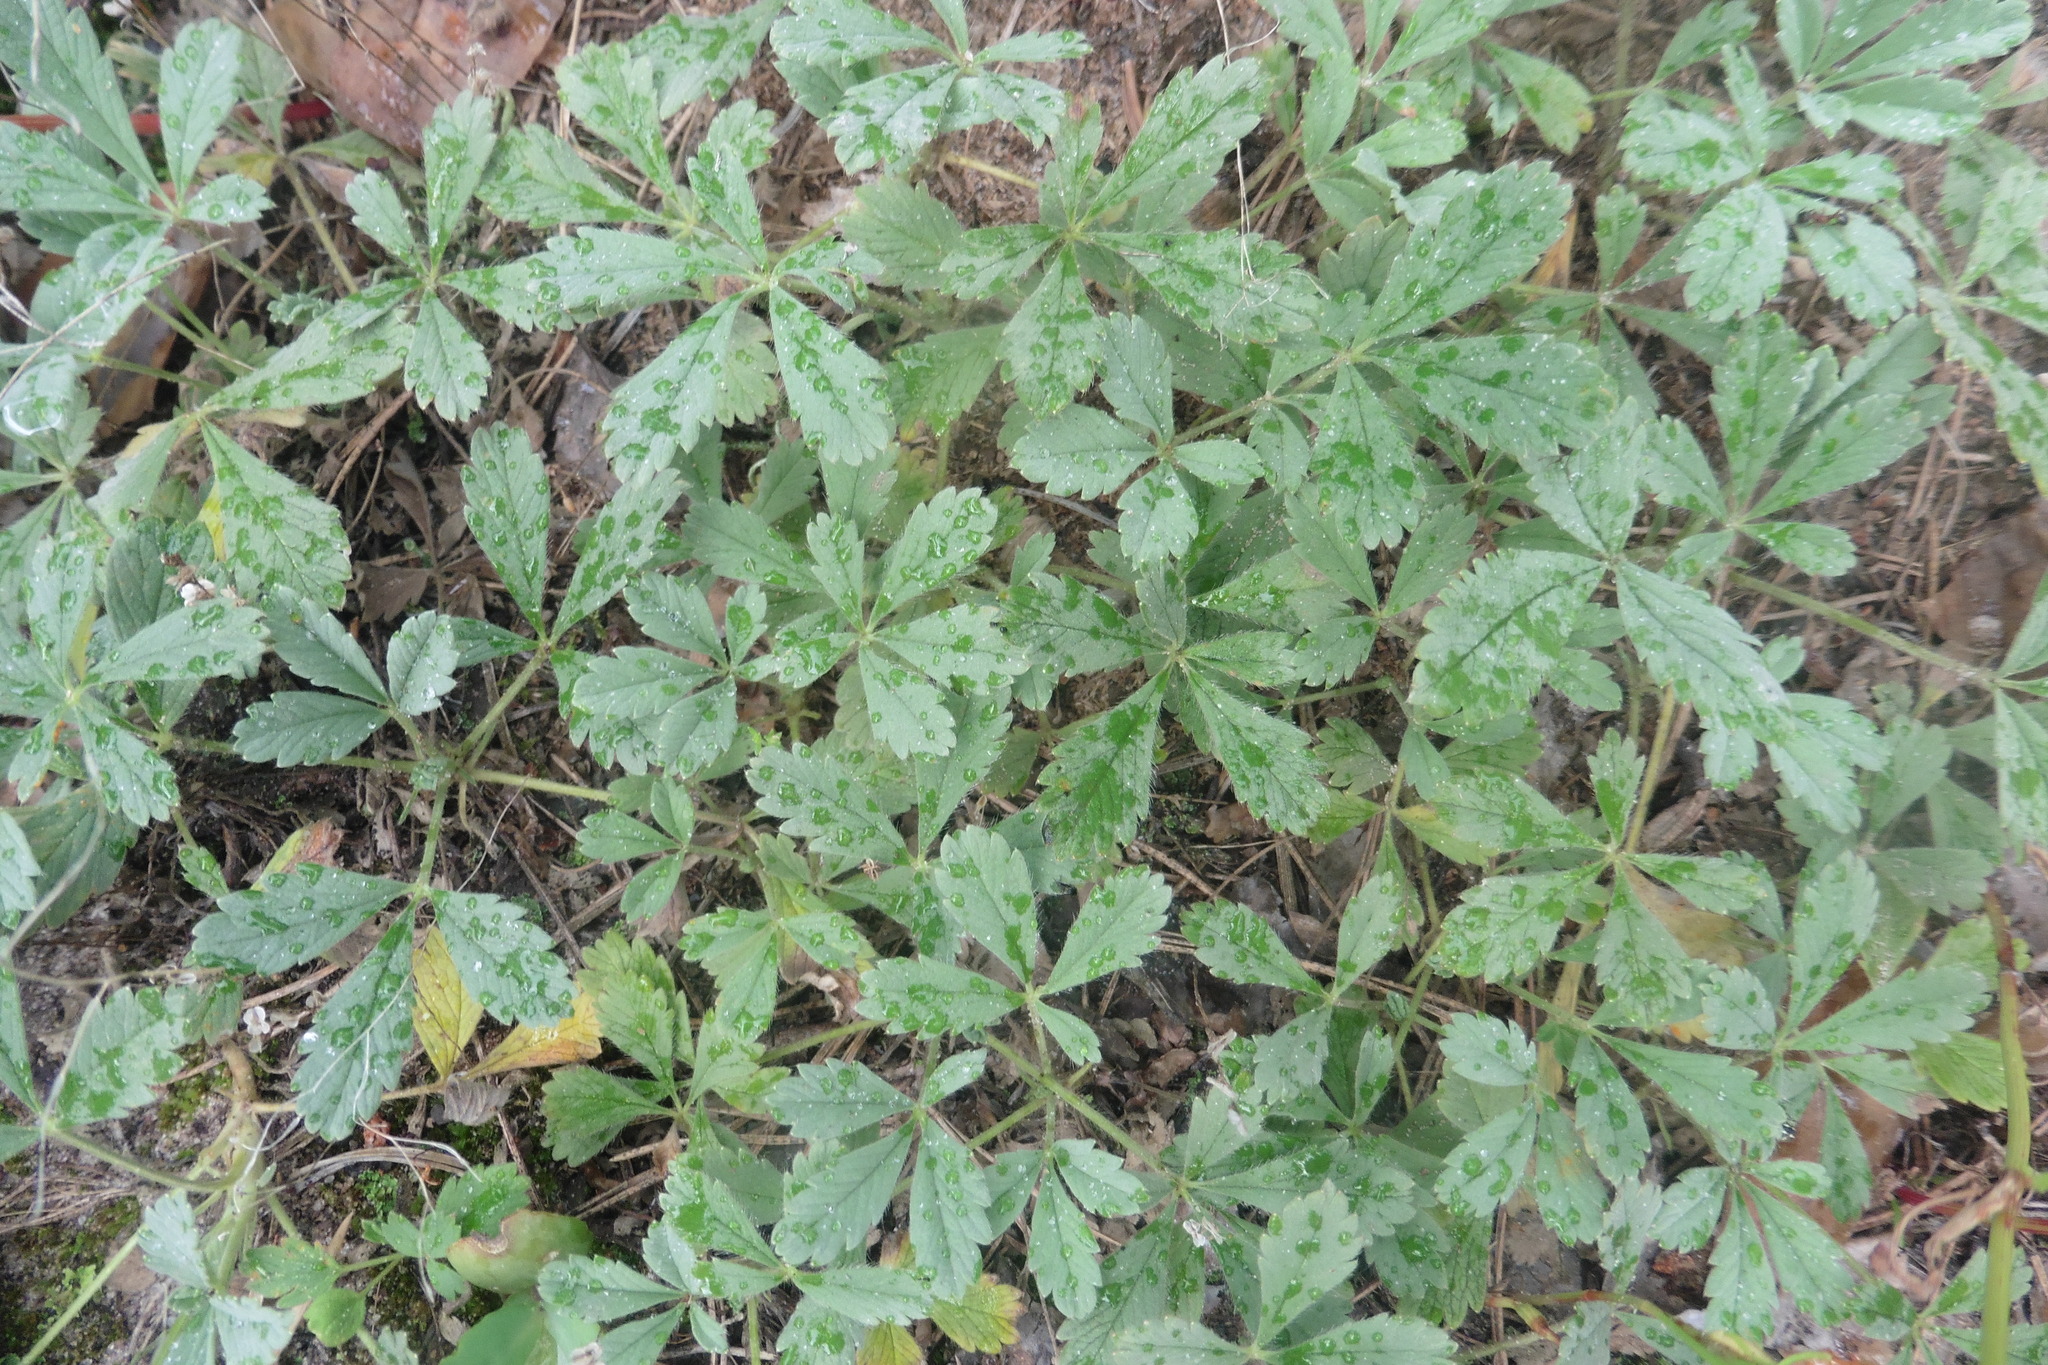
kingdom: Plantae
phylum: Tracheophyta
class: Magnoliopsida
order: Rosales
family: Rosaceae
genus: Potentilla
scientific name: Potentilla incana
